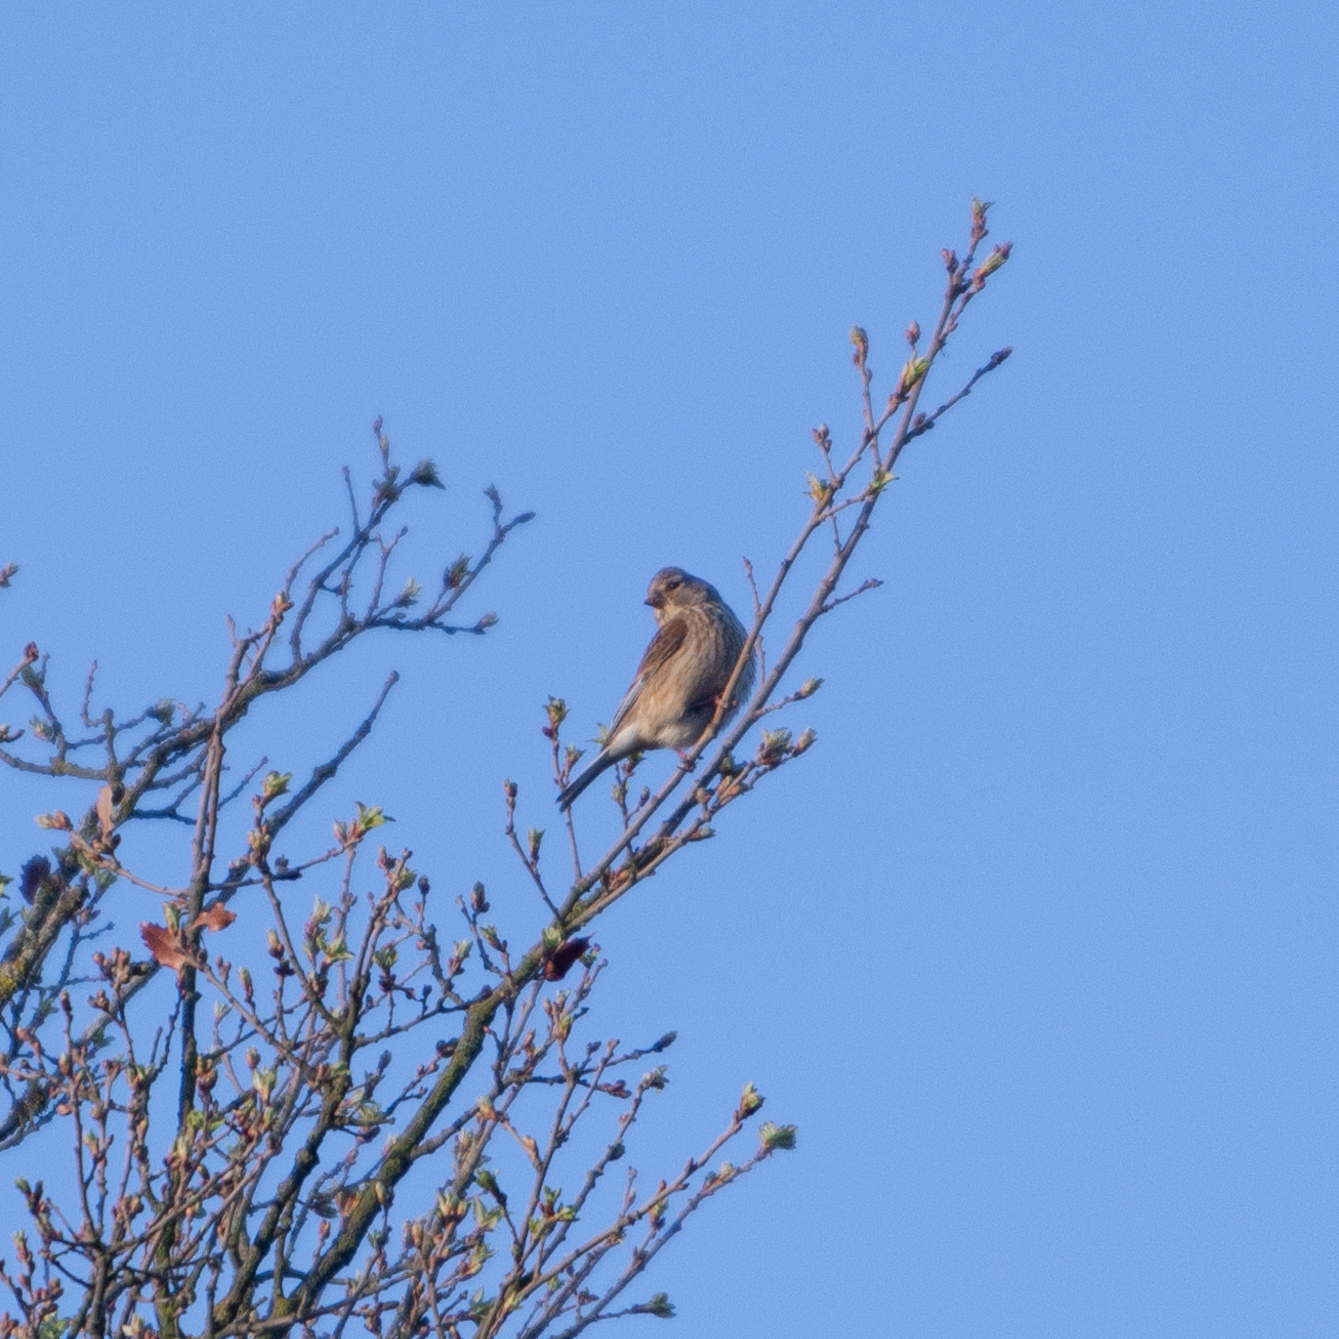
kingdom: Animalia
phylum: Chordata
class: Aves
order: Passeriformes
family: Fringillidae
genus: Linaria
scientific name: Linaria cannabina
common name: Common linnet
